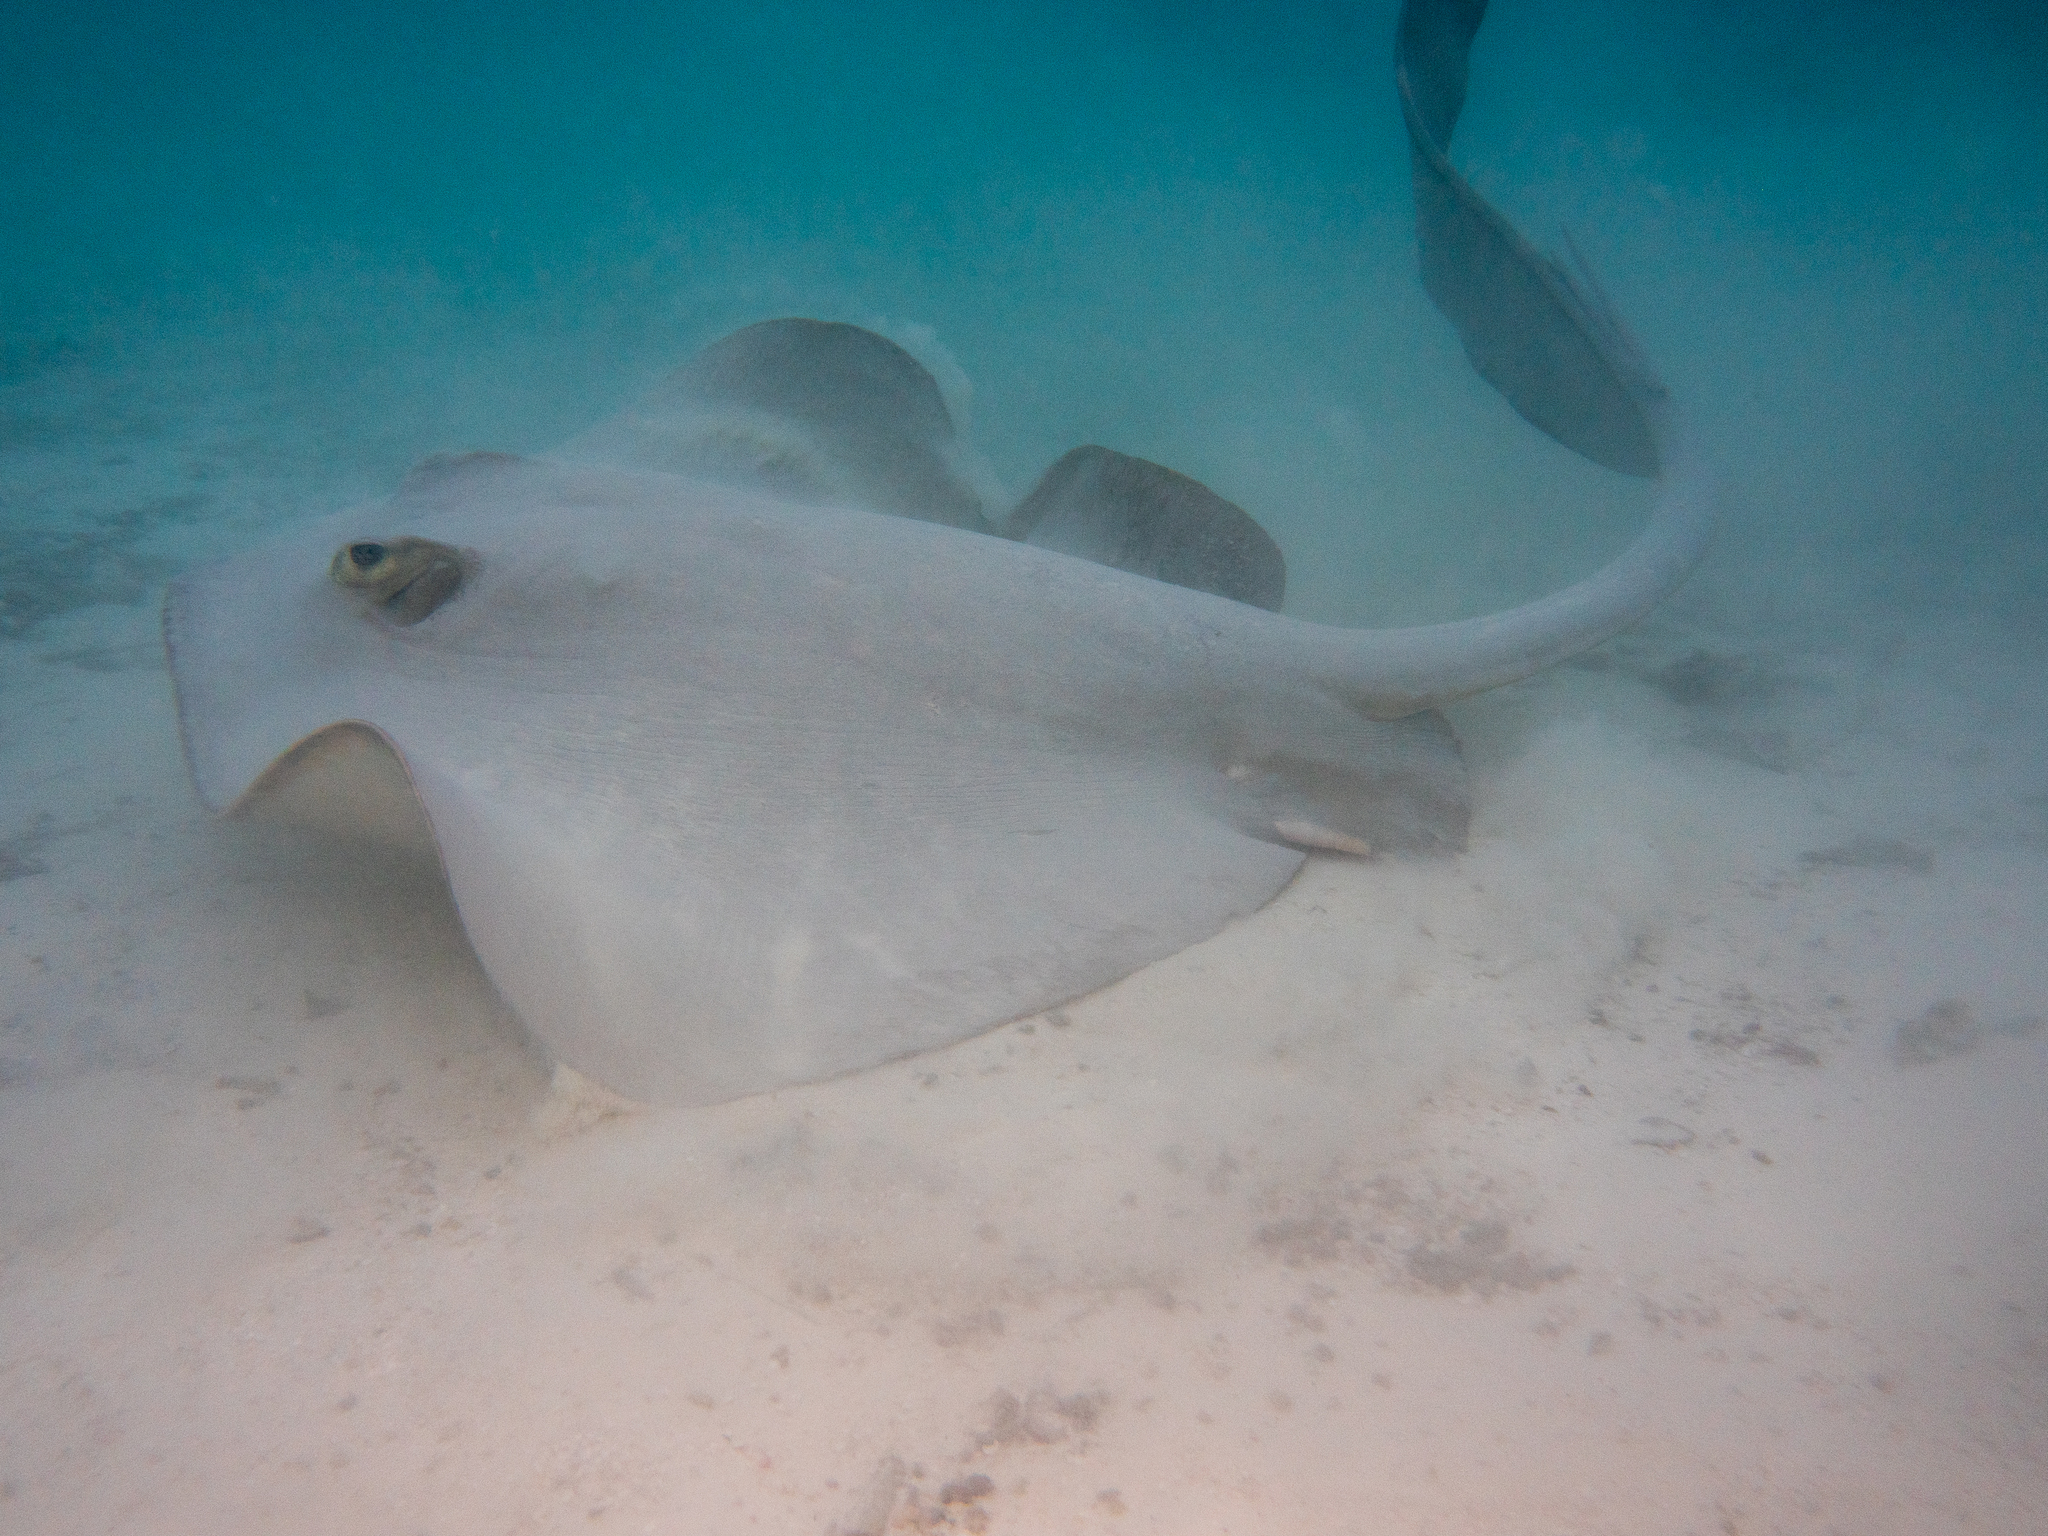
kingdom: Animalia
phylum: Chordata
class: Elasmobranchii
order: Myliobatiformes
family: Dasyatidae
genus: Pastinachus
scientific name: Pastinachus ater
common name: Banana-tail ray
